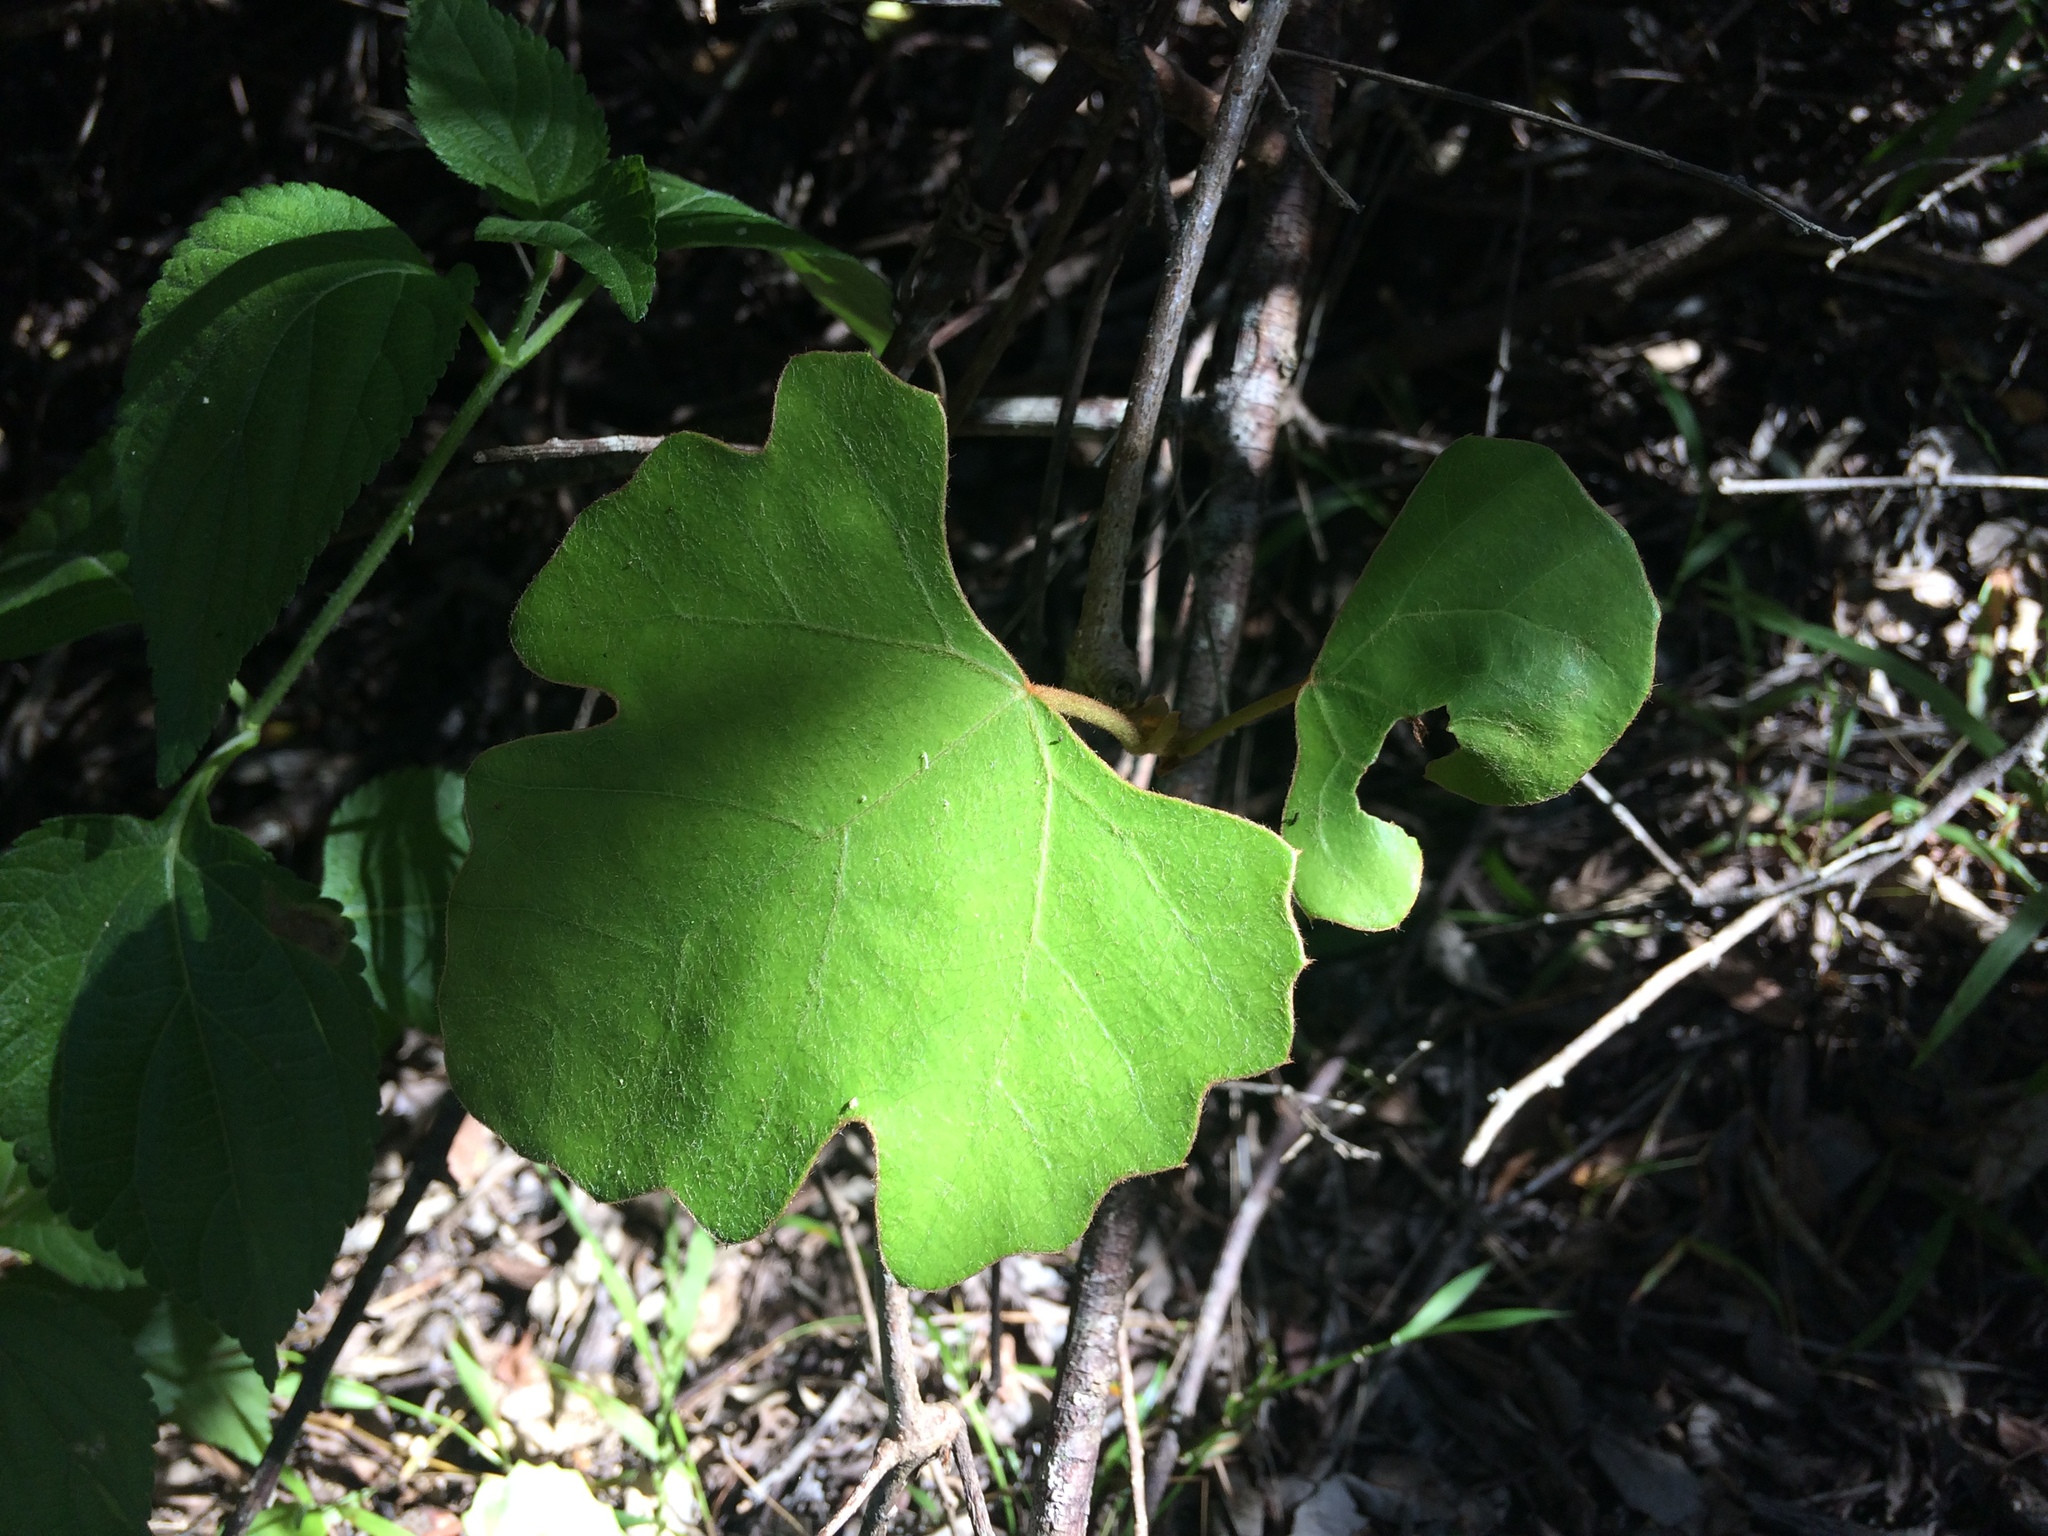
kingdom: Plantae
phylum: Tracheophyta
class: Magnoliopsida
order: Vitales
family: Vitaceae
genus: Rhoicissus
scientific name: Rhoicissus tomentosa
